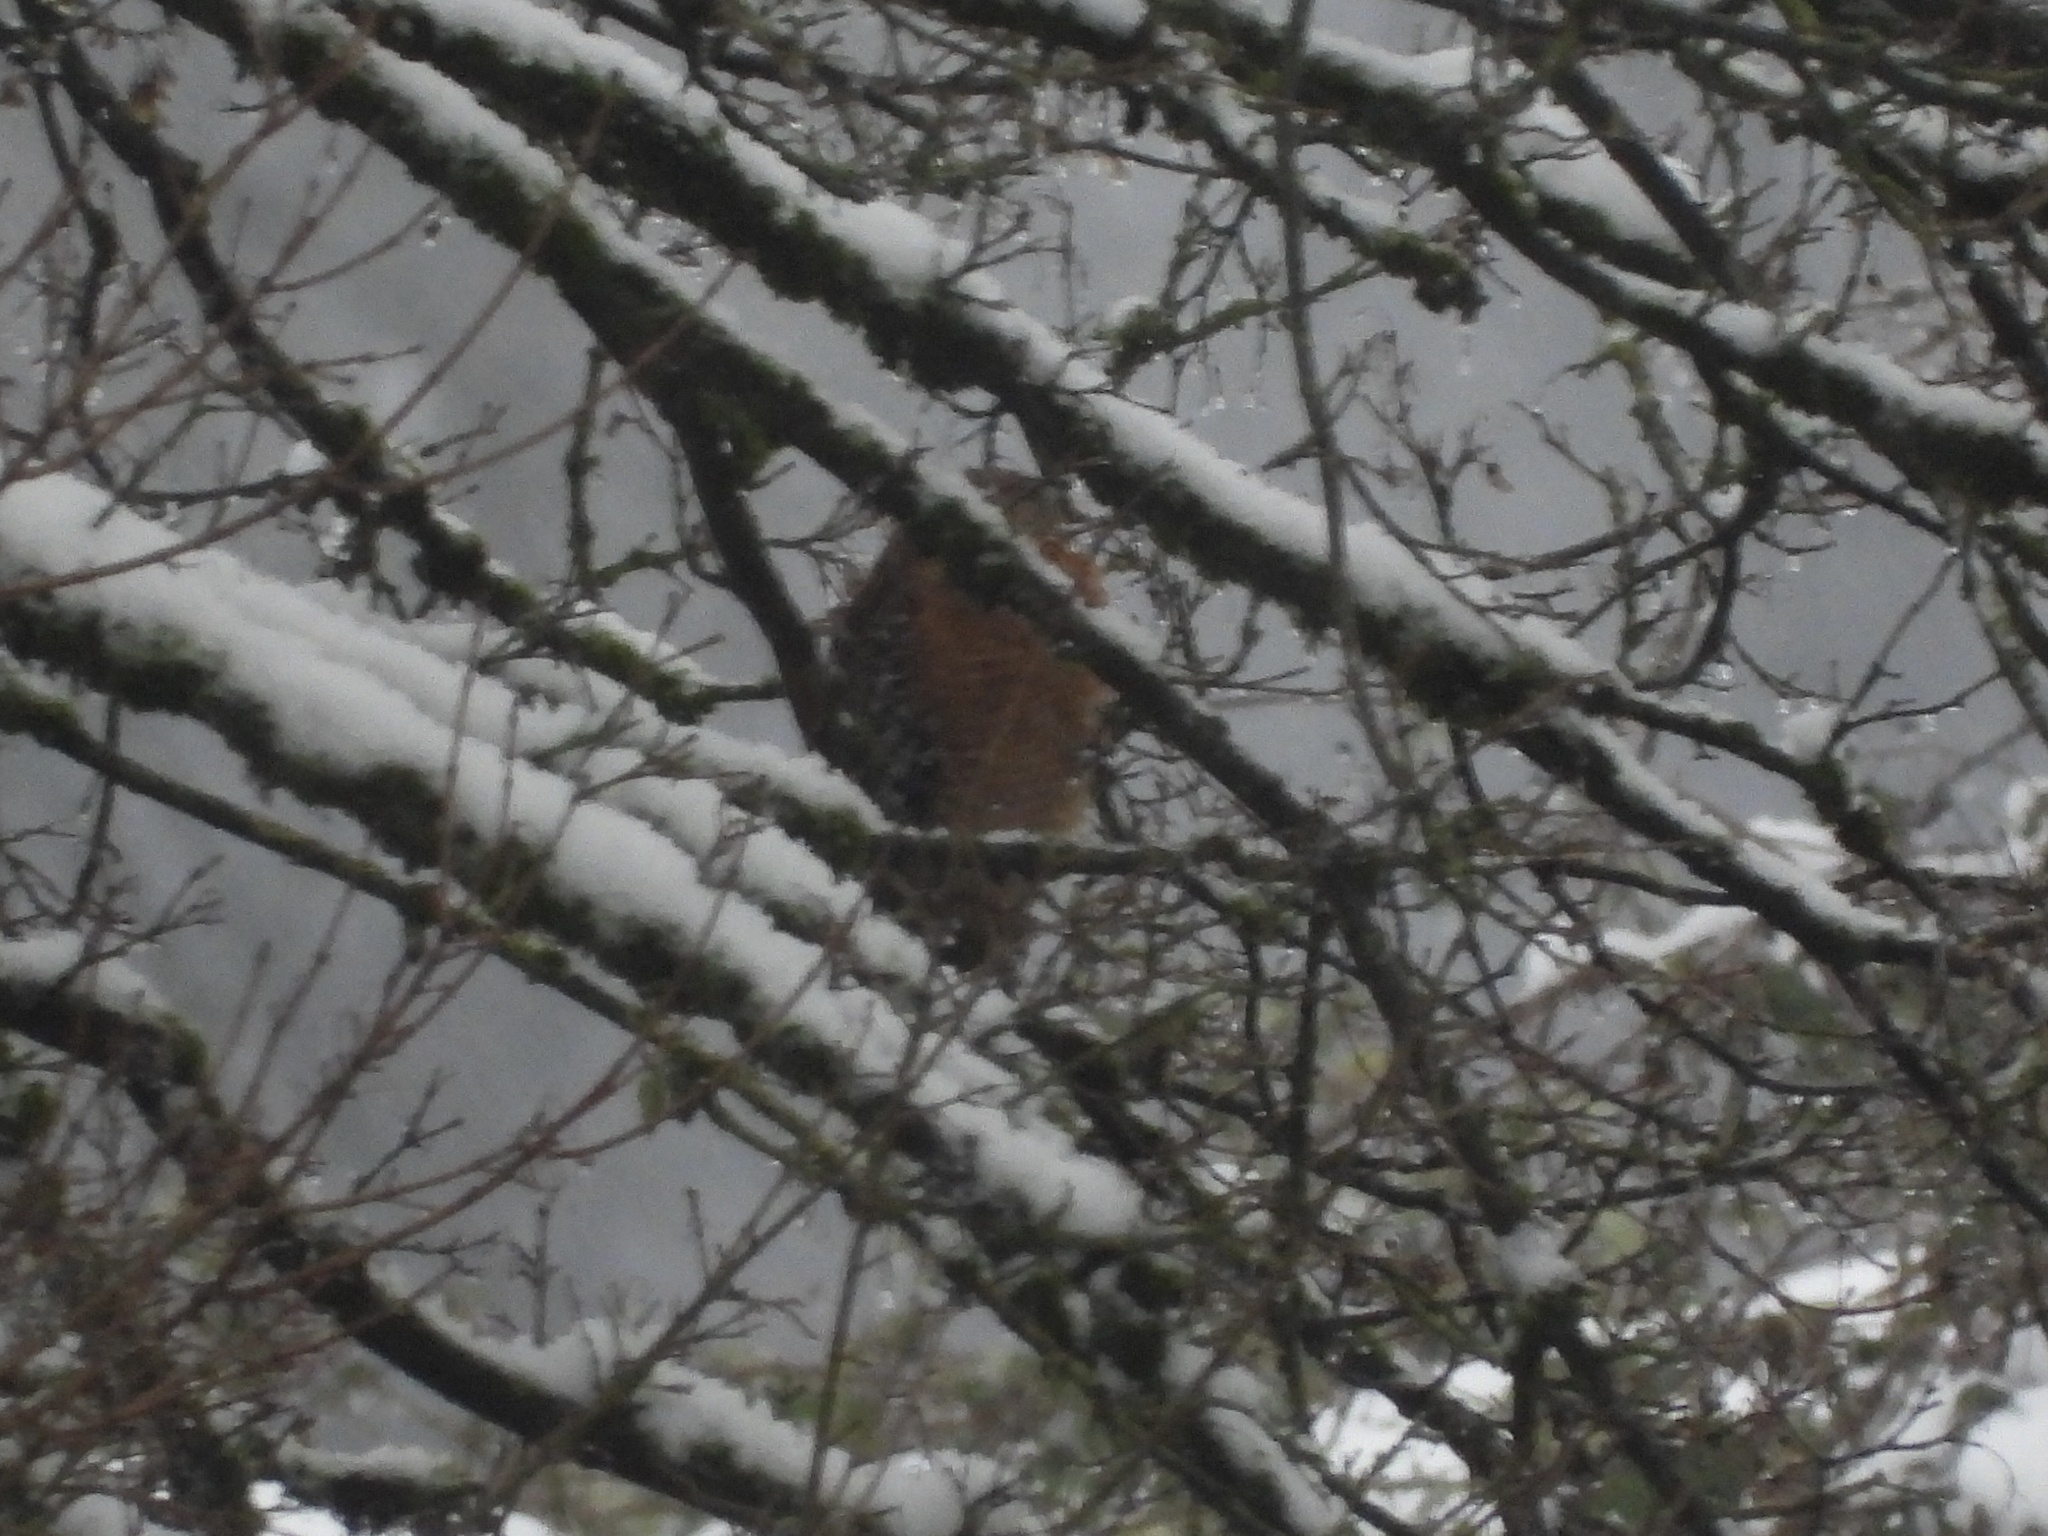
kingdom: Animalia
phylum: Chordata
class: Aves
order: Accipitriformes
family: Accipitridae
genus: Buteo
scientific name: Buteo lineatus
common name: Red-shouldered hawk
